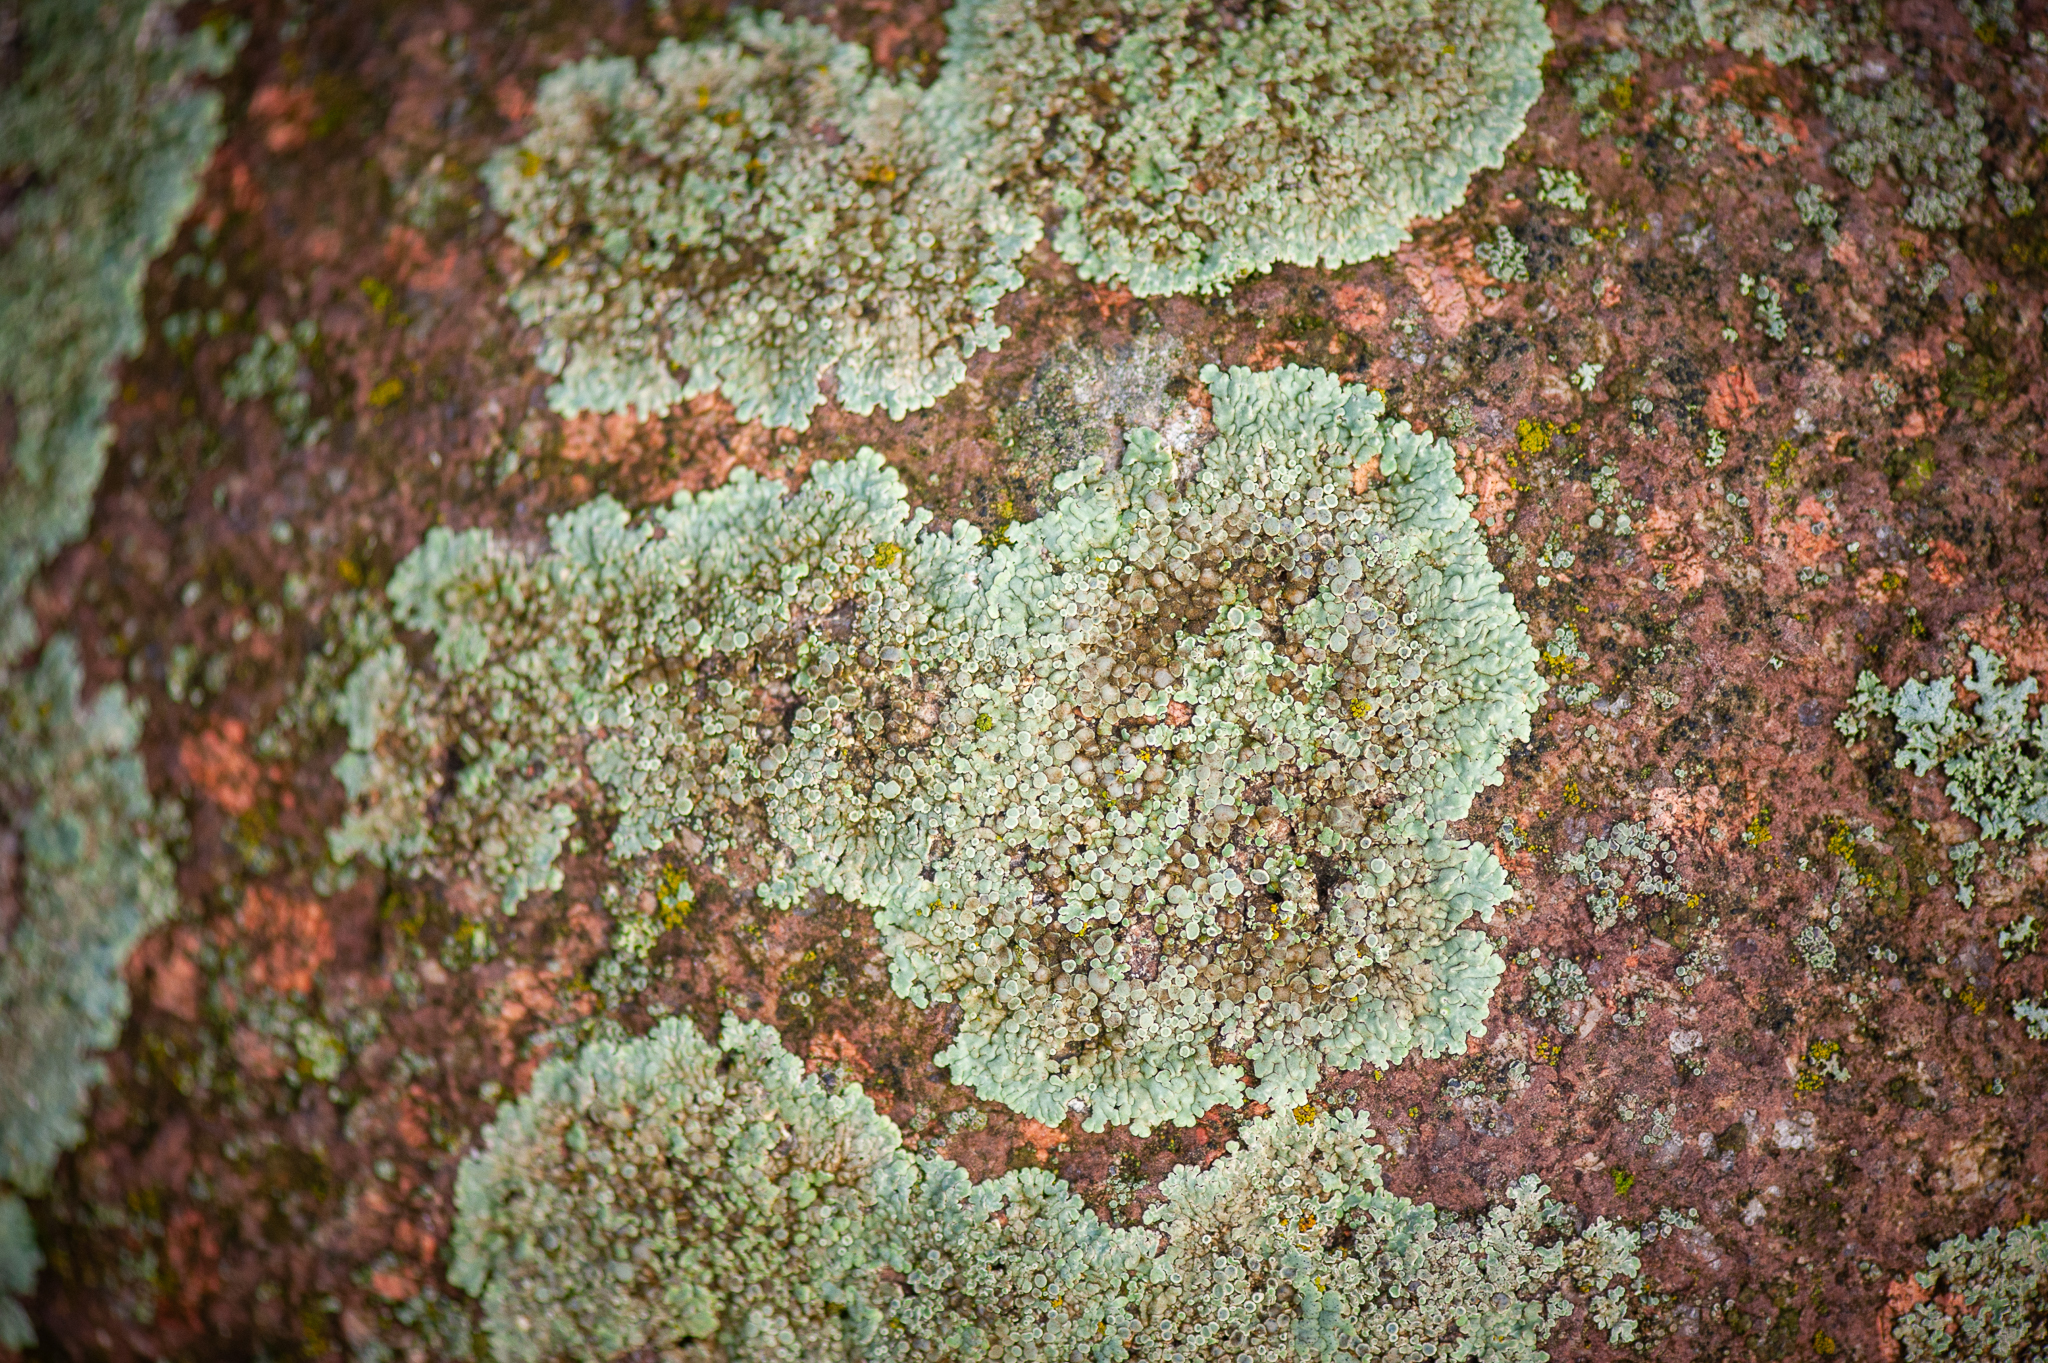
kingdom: Fungi
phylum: Ascomycota
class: Lecanoromycetes
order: Lecanorales
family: Lecanoraceae
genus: Protoparmeliopsis
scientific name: Protoparmeliopsis muralis
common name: Stonewall rim lichen
